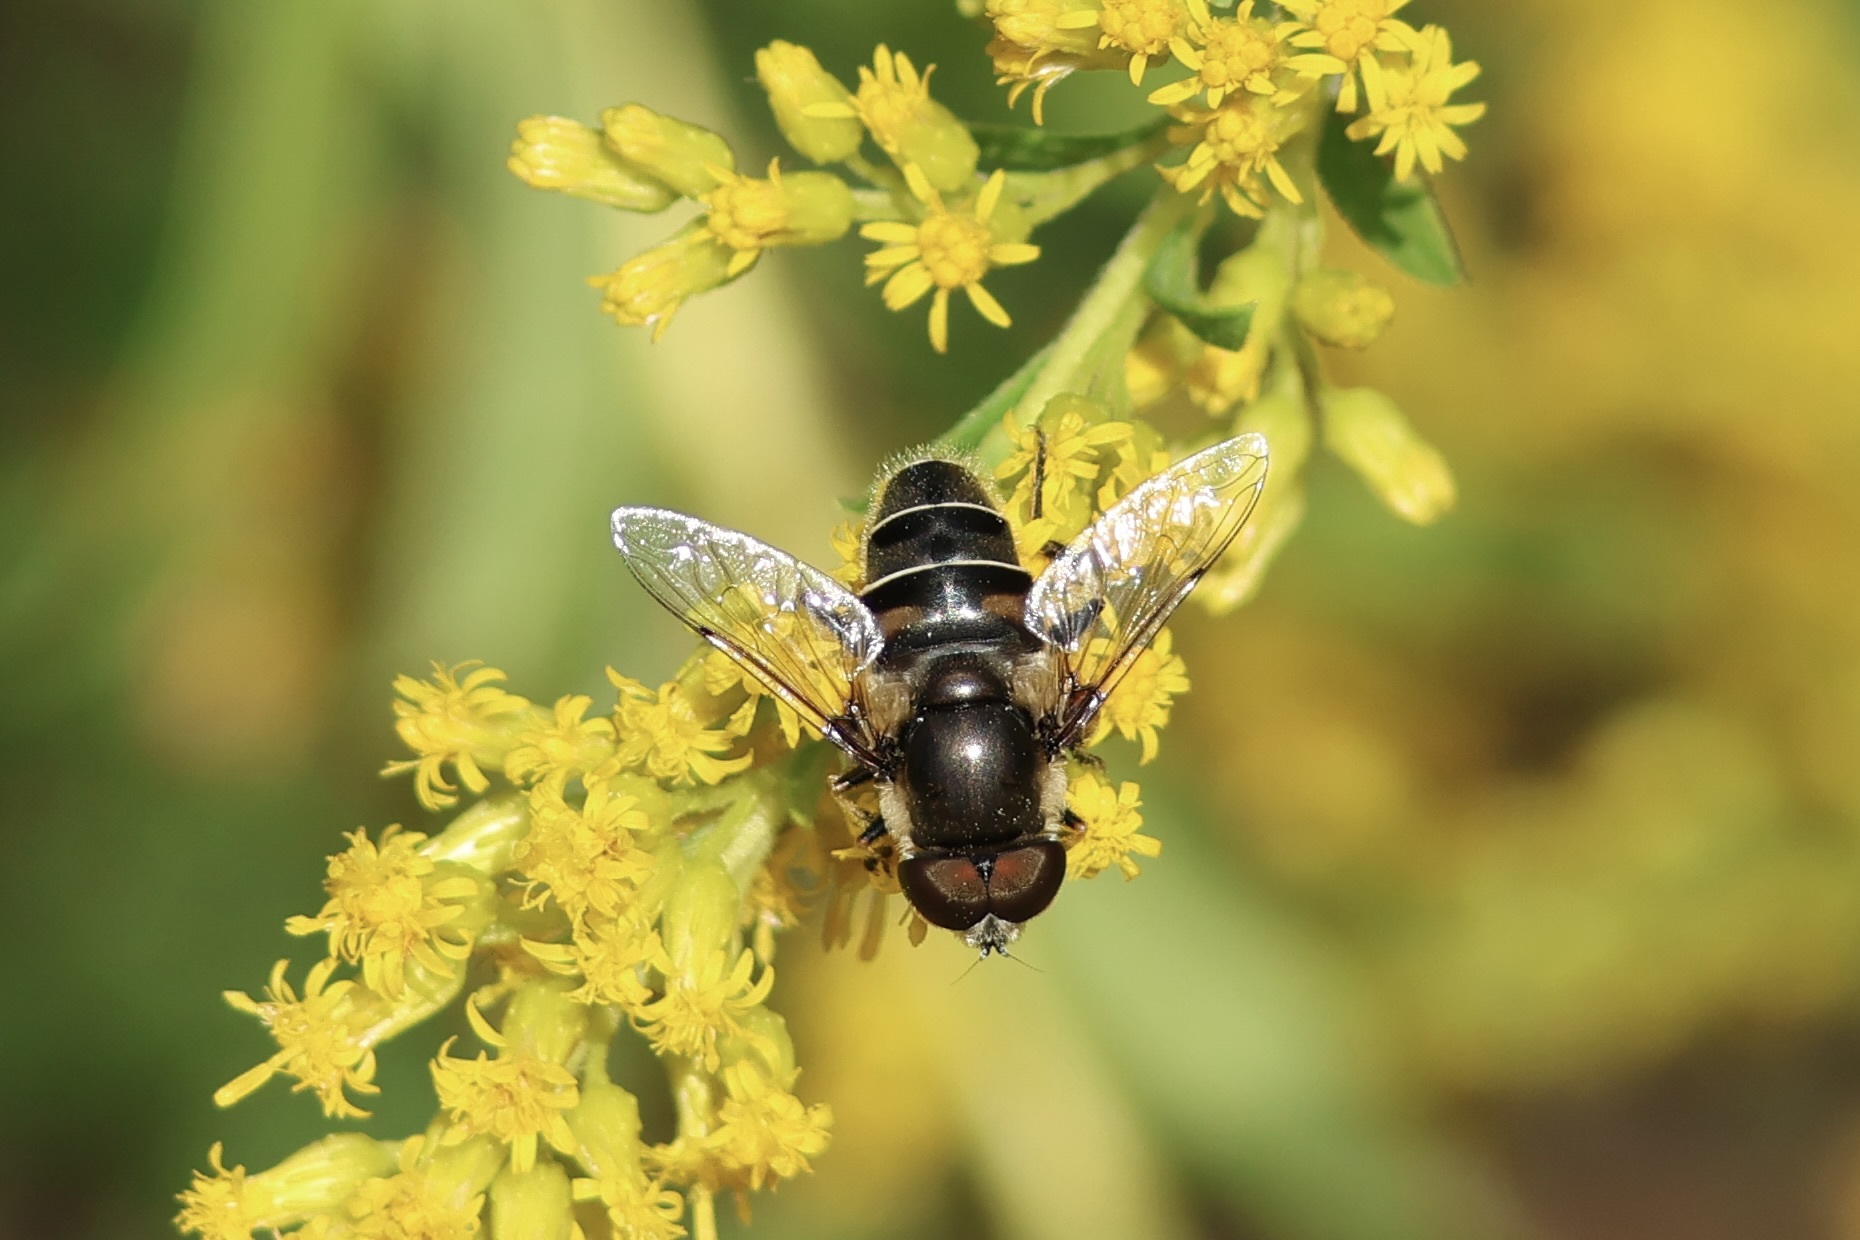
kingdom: Animalia
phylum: Arthropoda
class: Insecta
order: Diptera
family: Syrphidae
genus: Eristalis
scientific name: Eristalis dimidiata
